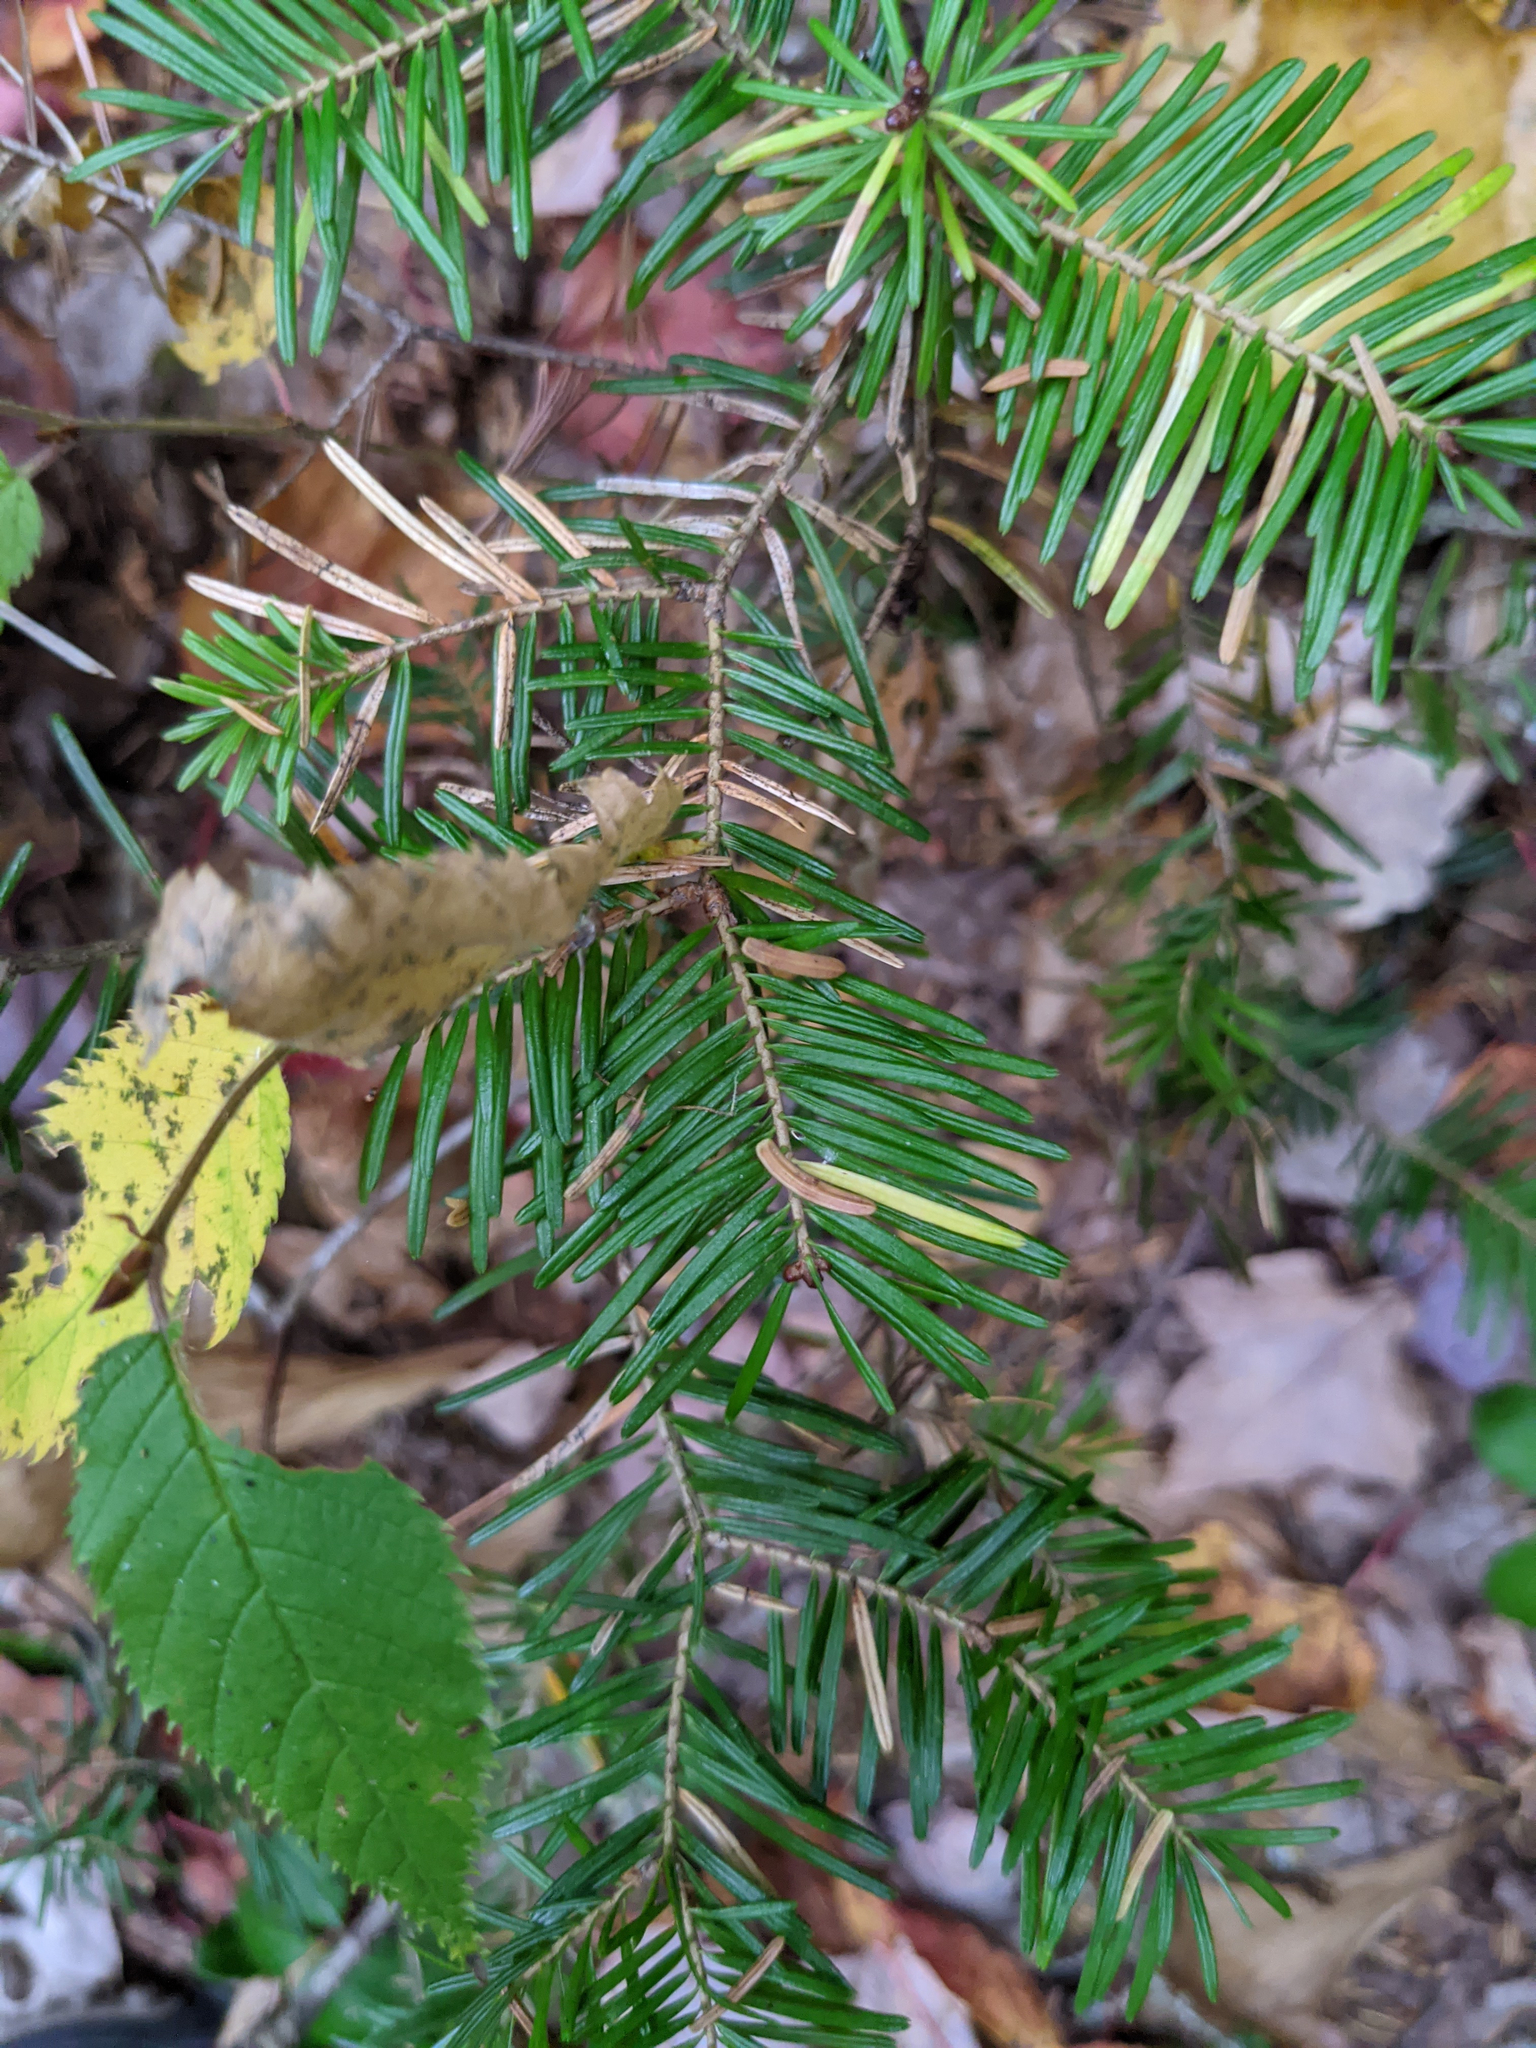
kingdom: Plantae
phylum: Tracheophyta
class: Pinopsida
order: Pinales
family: Pinaceae
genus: Abies
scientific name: Abies balsamea
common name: Balsam fir
